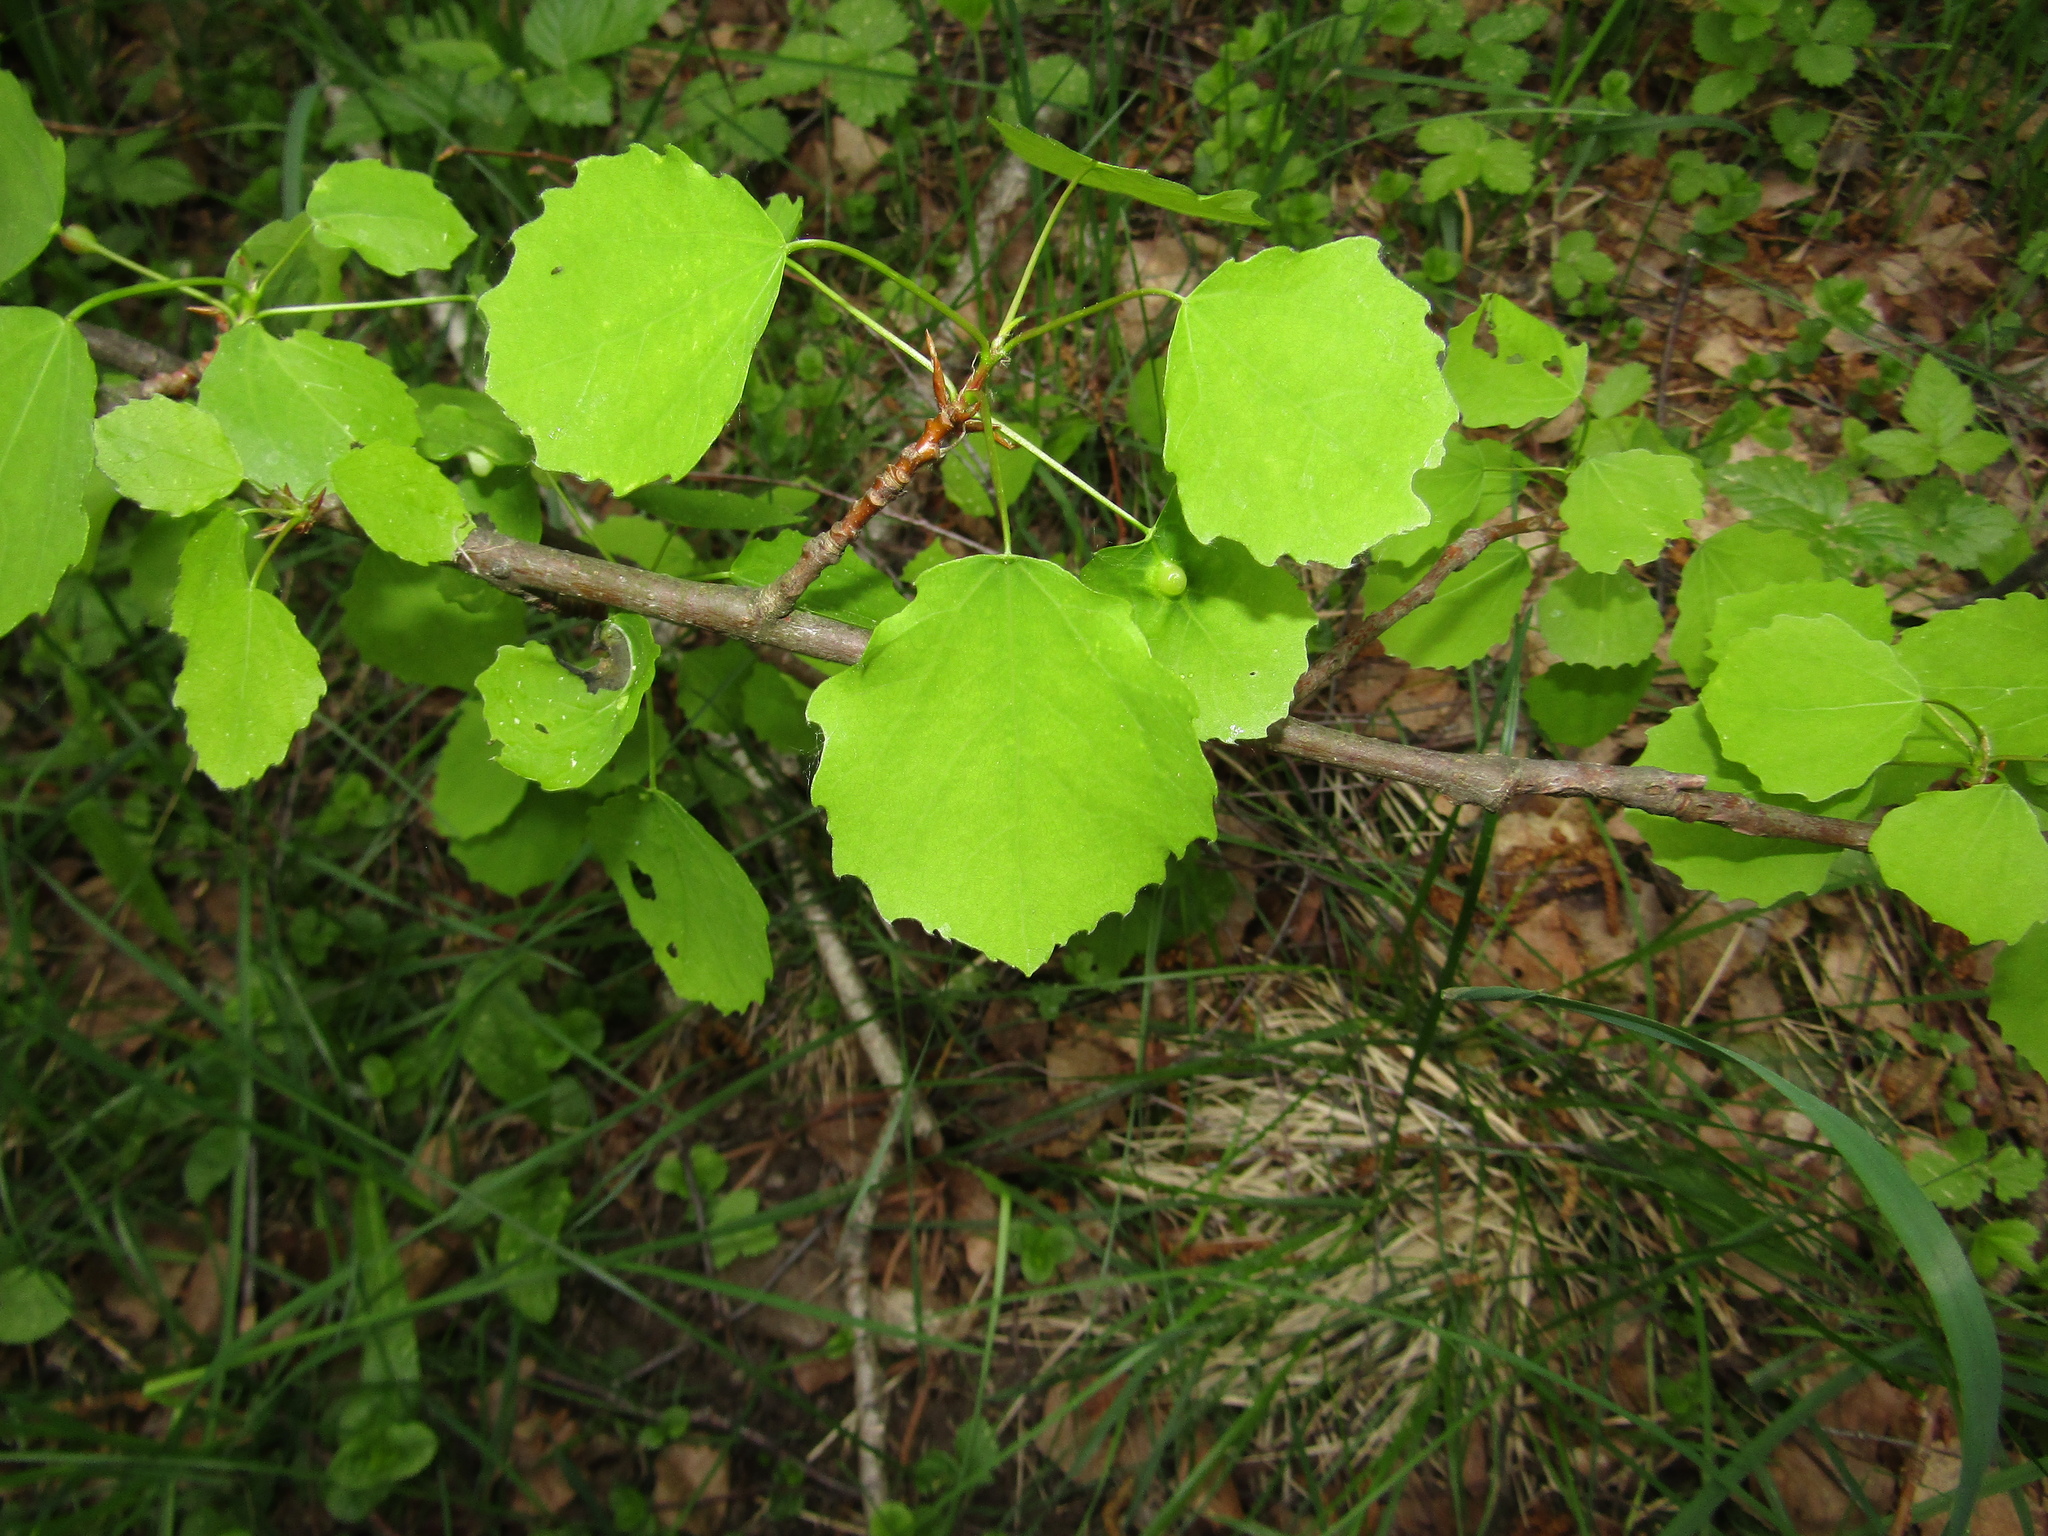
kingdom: Plantae
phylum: Tracheophyta
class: Magnoliopsida
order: Malpighiales
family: Salicaceae
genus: Populus
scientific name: Populus tremula
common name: European aspen
